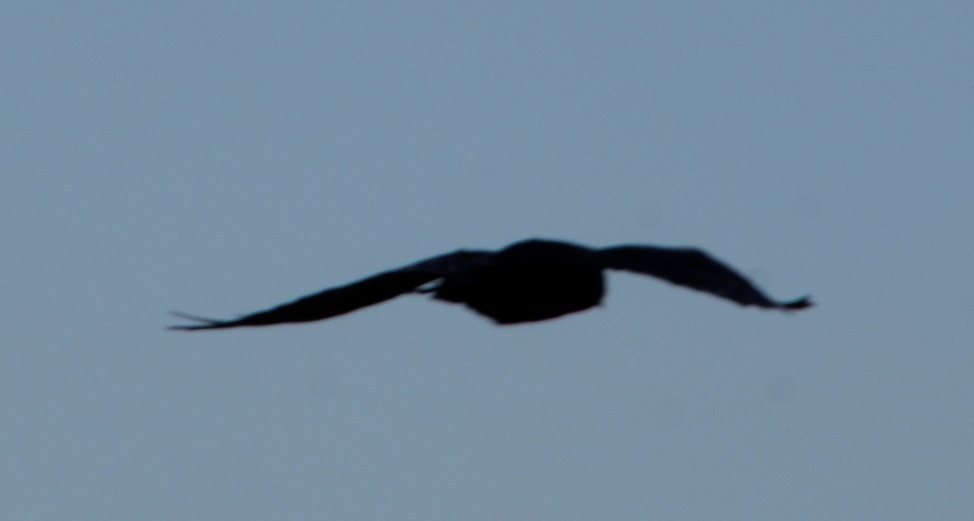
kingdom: Animalia
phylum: Chordata
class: Aves
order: Passeriformes
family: Corvidae
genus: Corvus
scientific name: Corvus albicollis
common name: White-necked raven
